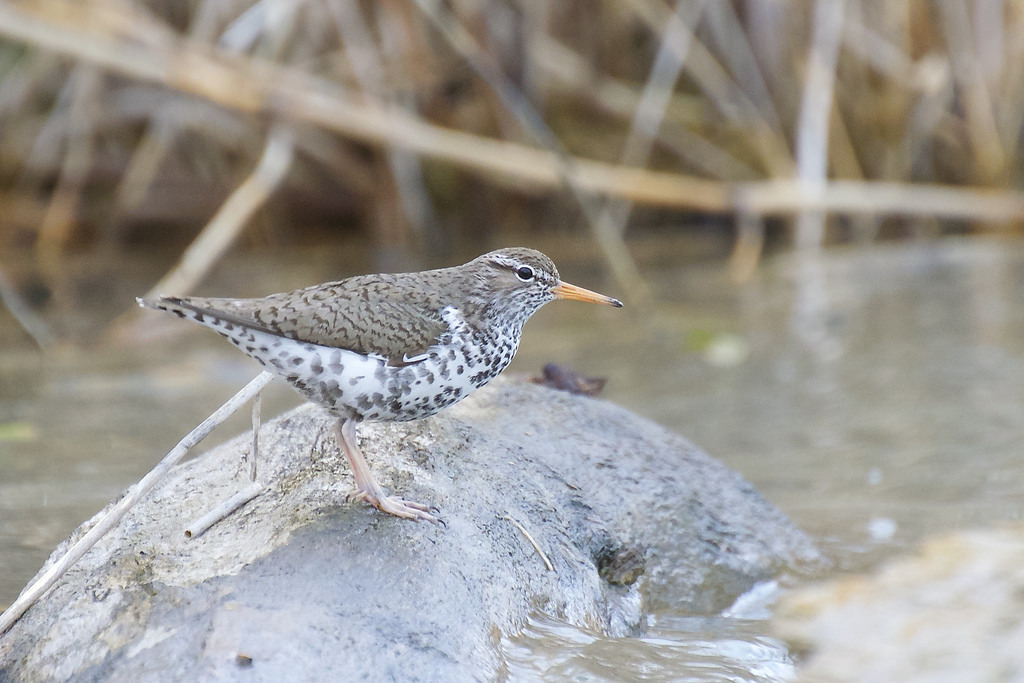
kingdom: Animalia
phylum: Chordata
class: Aves
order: Charadriiformes
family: Scolopacidae
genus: Actitis
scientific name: Actitis macularius
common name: Spotted sandpiper
